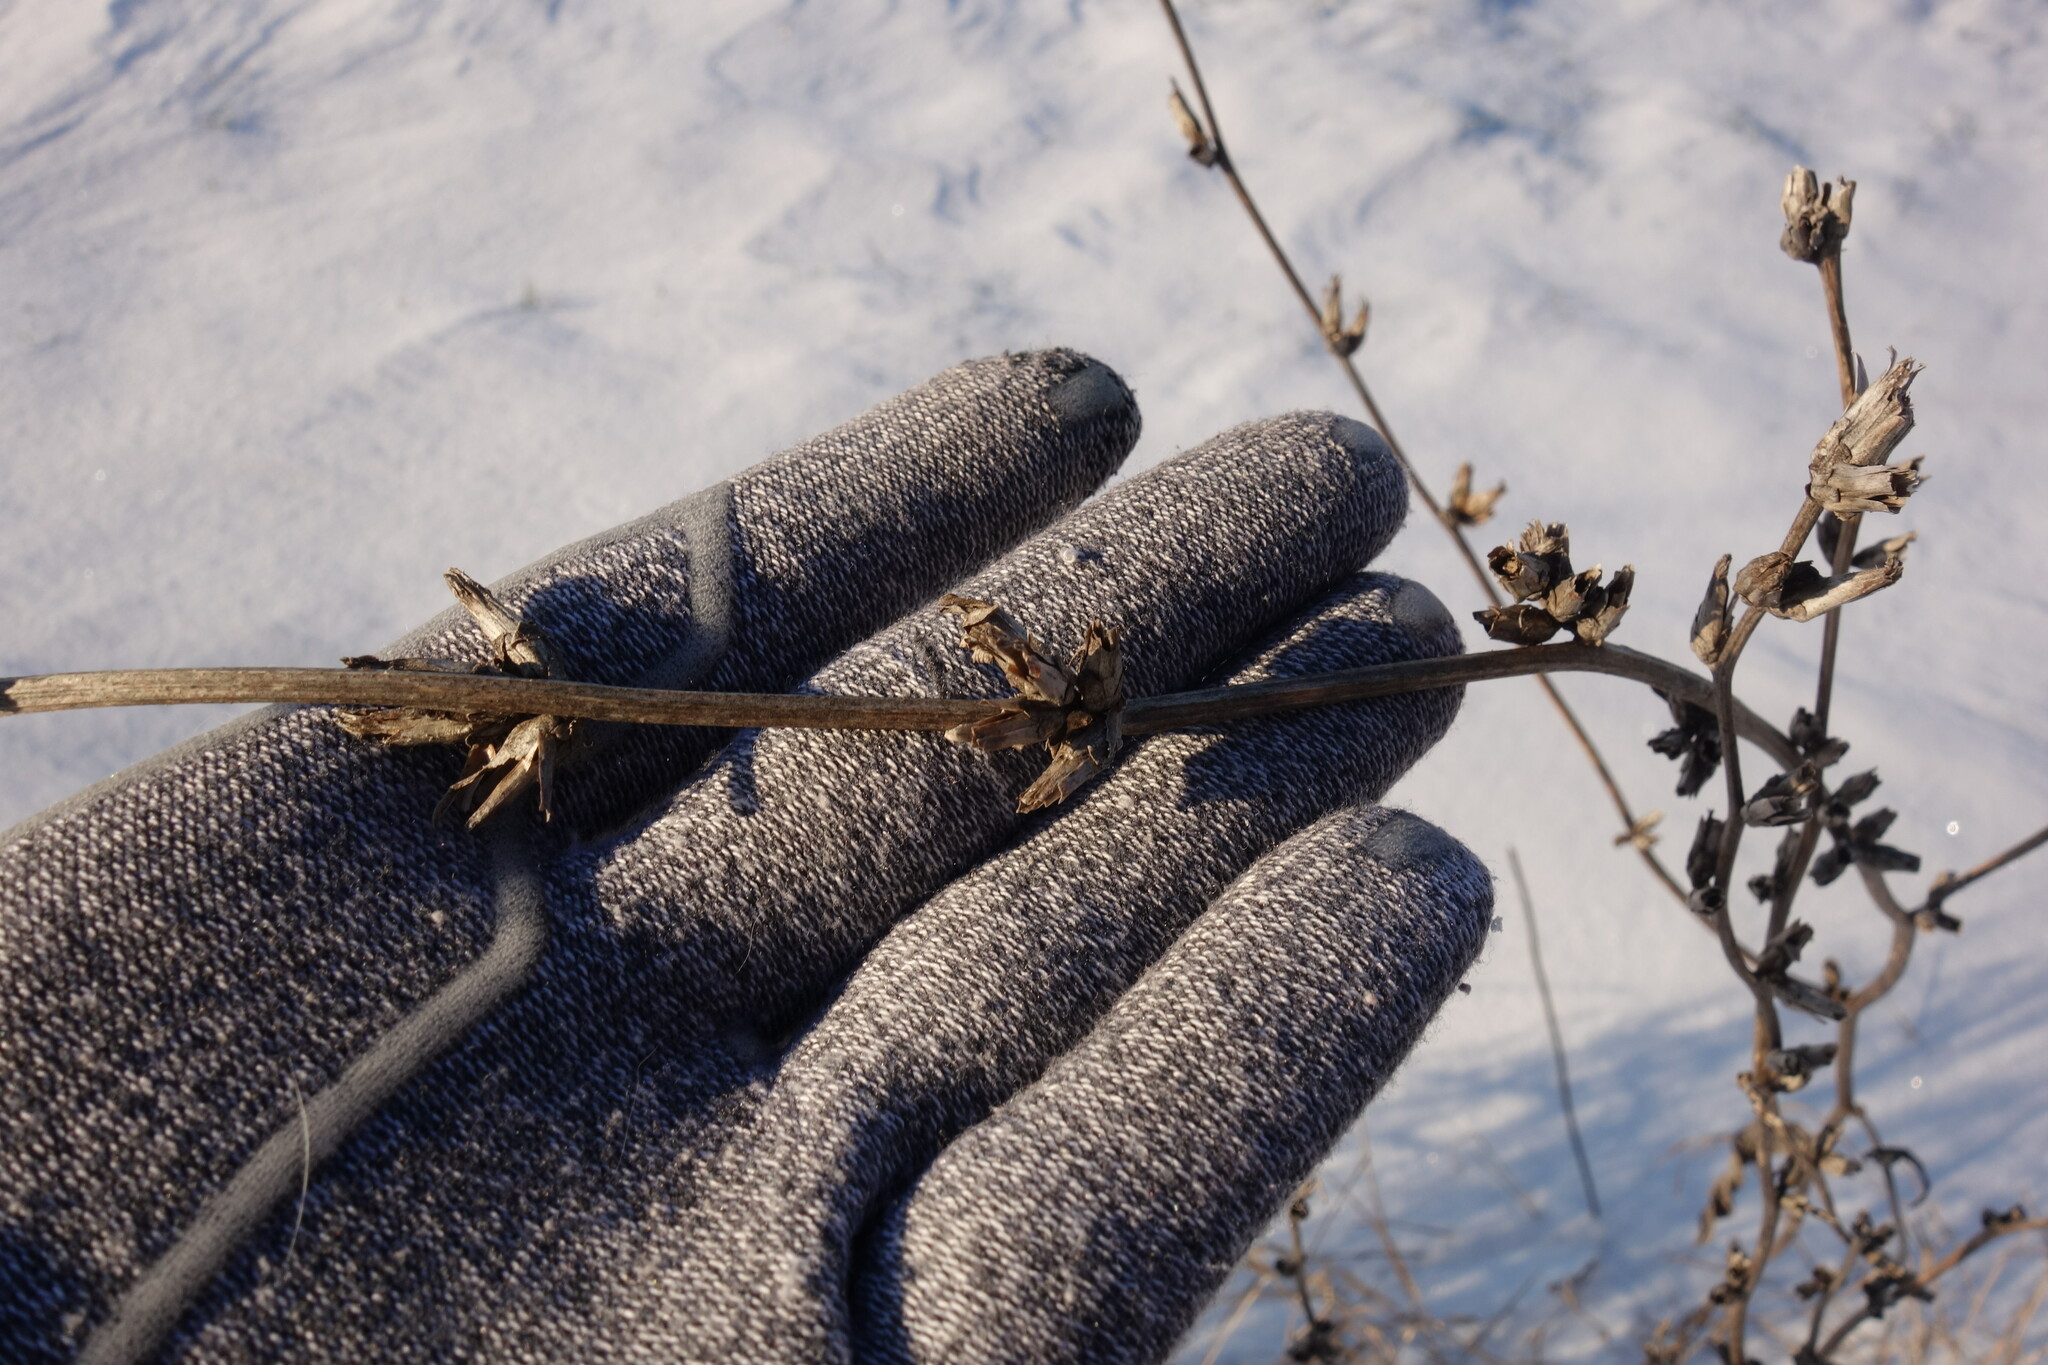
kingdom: Plantae
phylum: Tracheophyta
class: Magnoliopsida
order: Asterales
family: Asteraceae
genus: Cichorium
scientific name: Cichorium intybus
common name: Chicory
